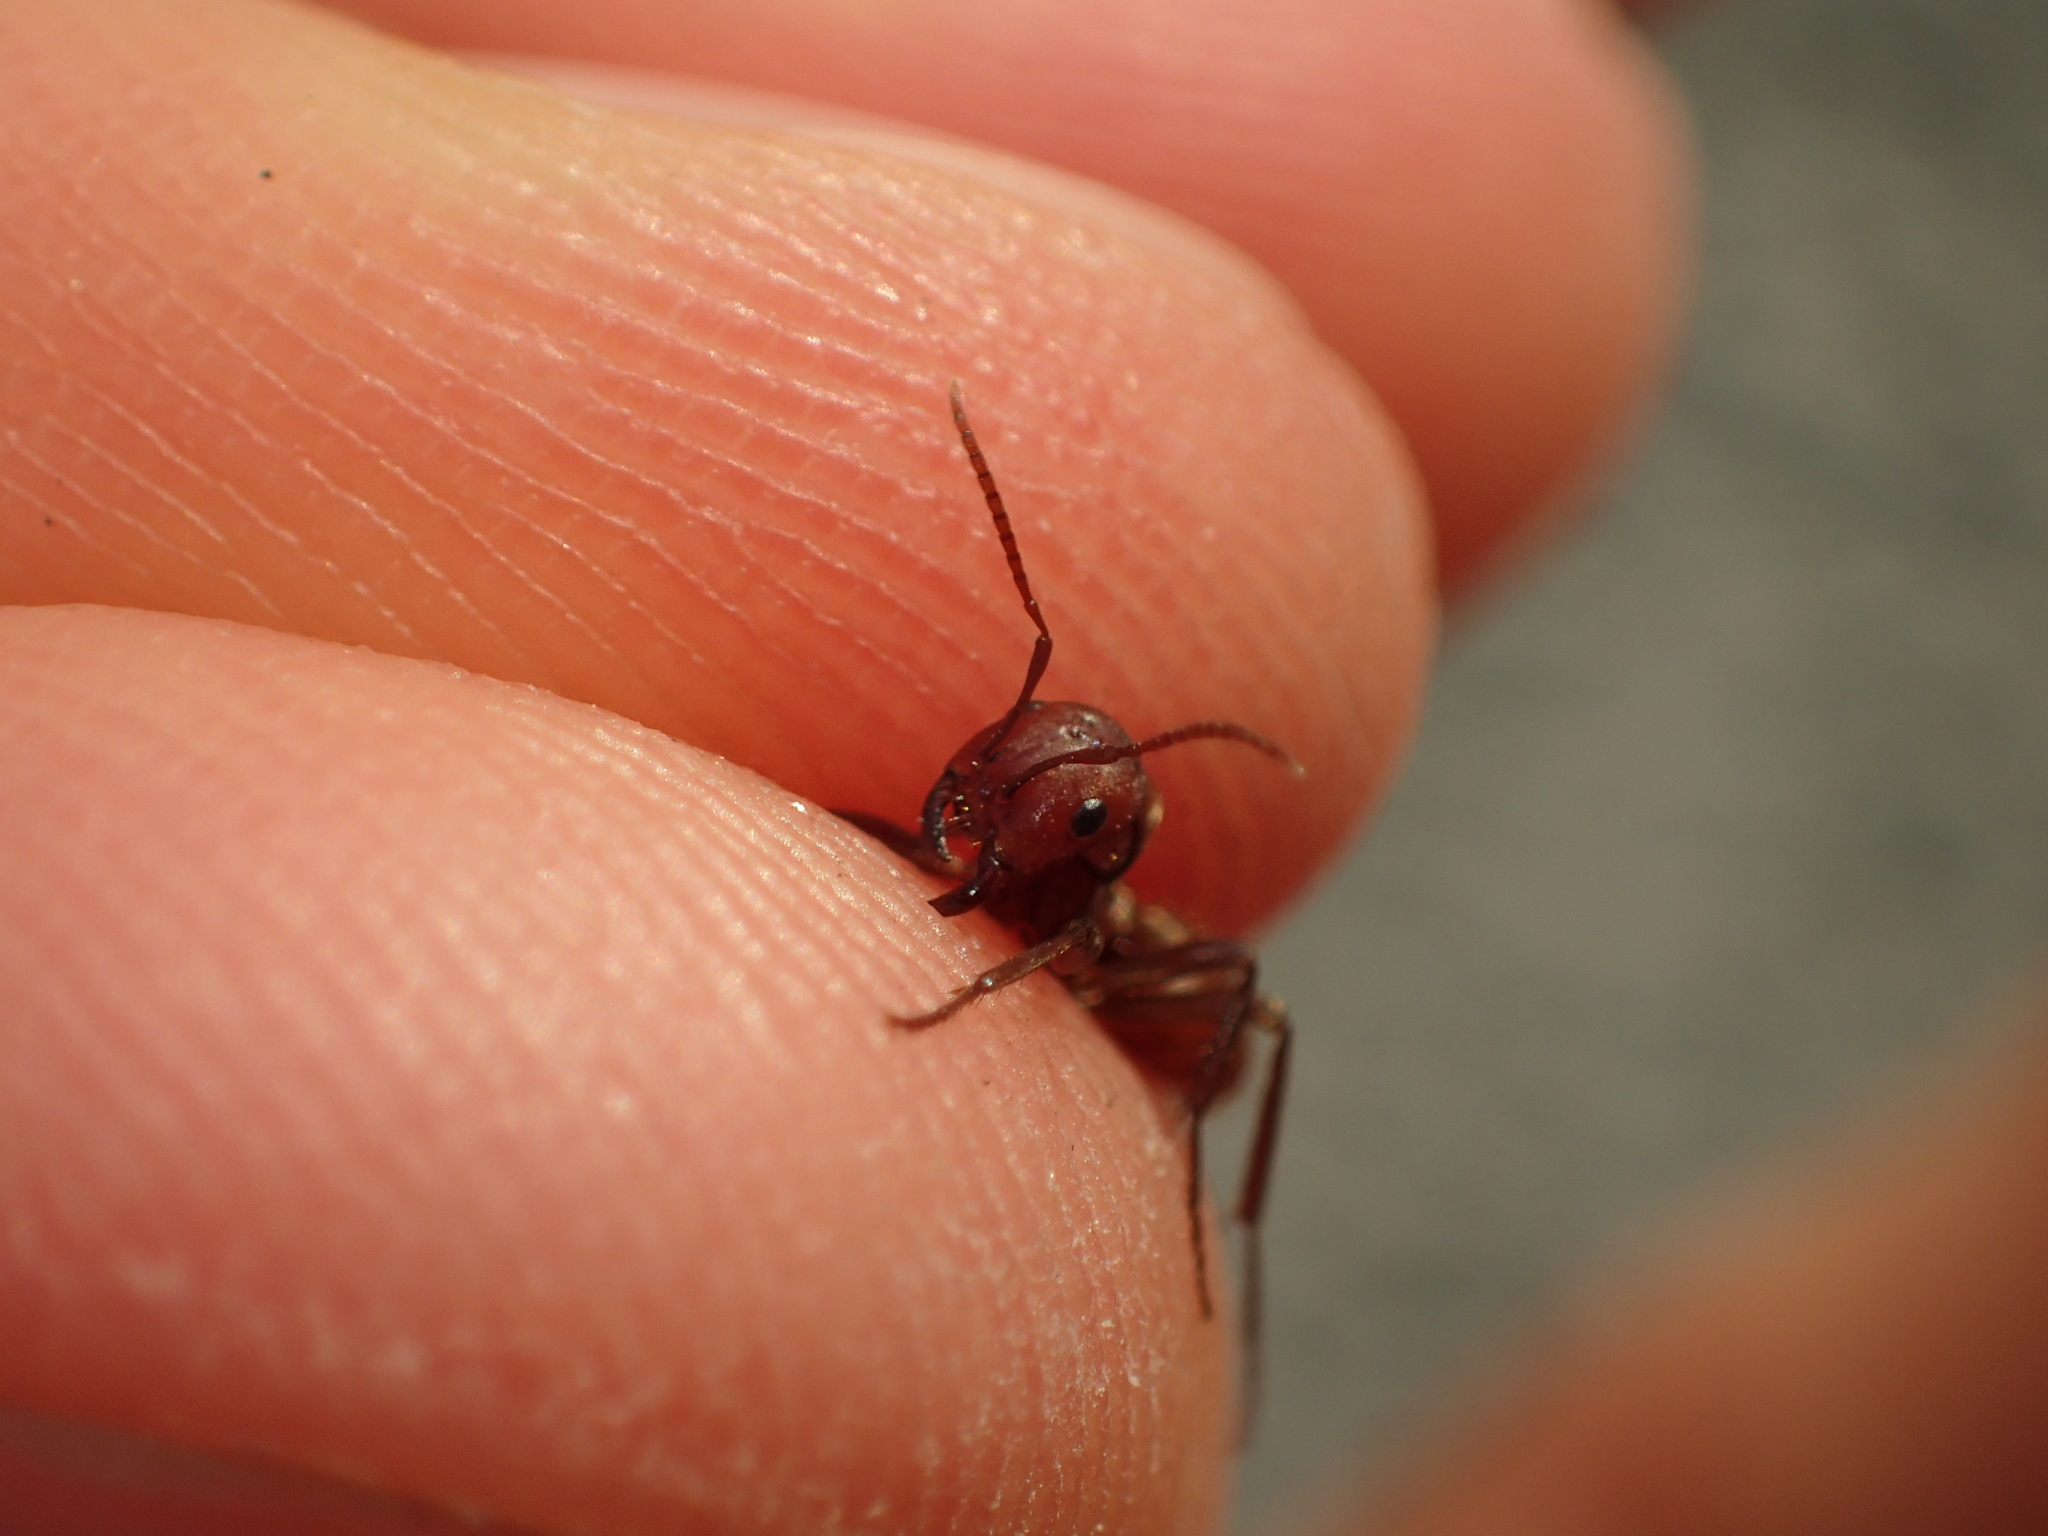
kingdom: Animalia
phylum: Arthropoda
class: Insecta
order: Hymenoptera
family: Formicidae
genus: Polyergus
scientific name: Polyergus rufescens
